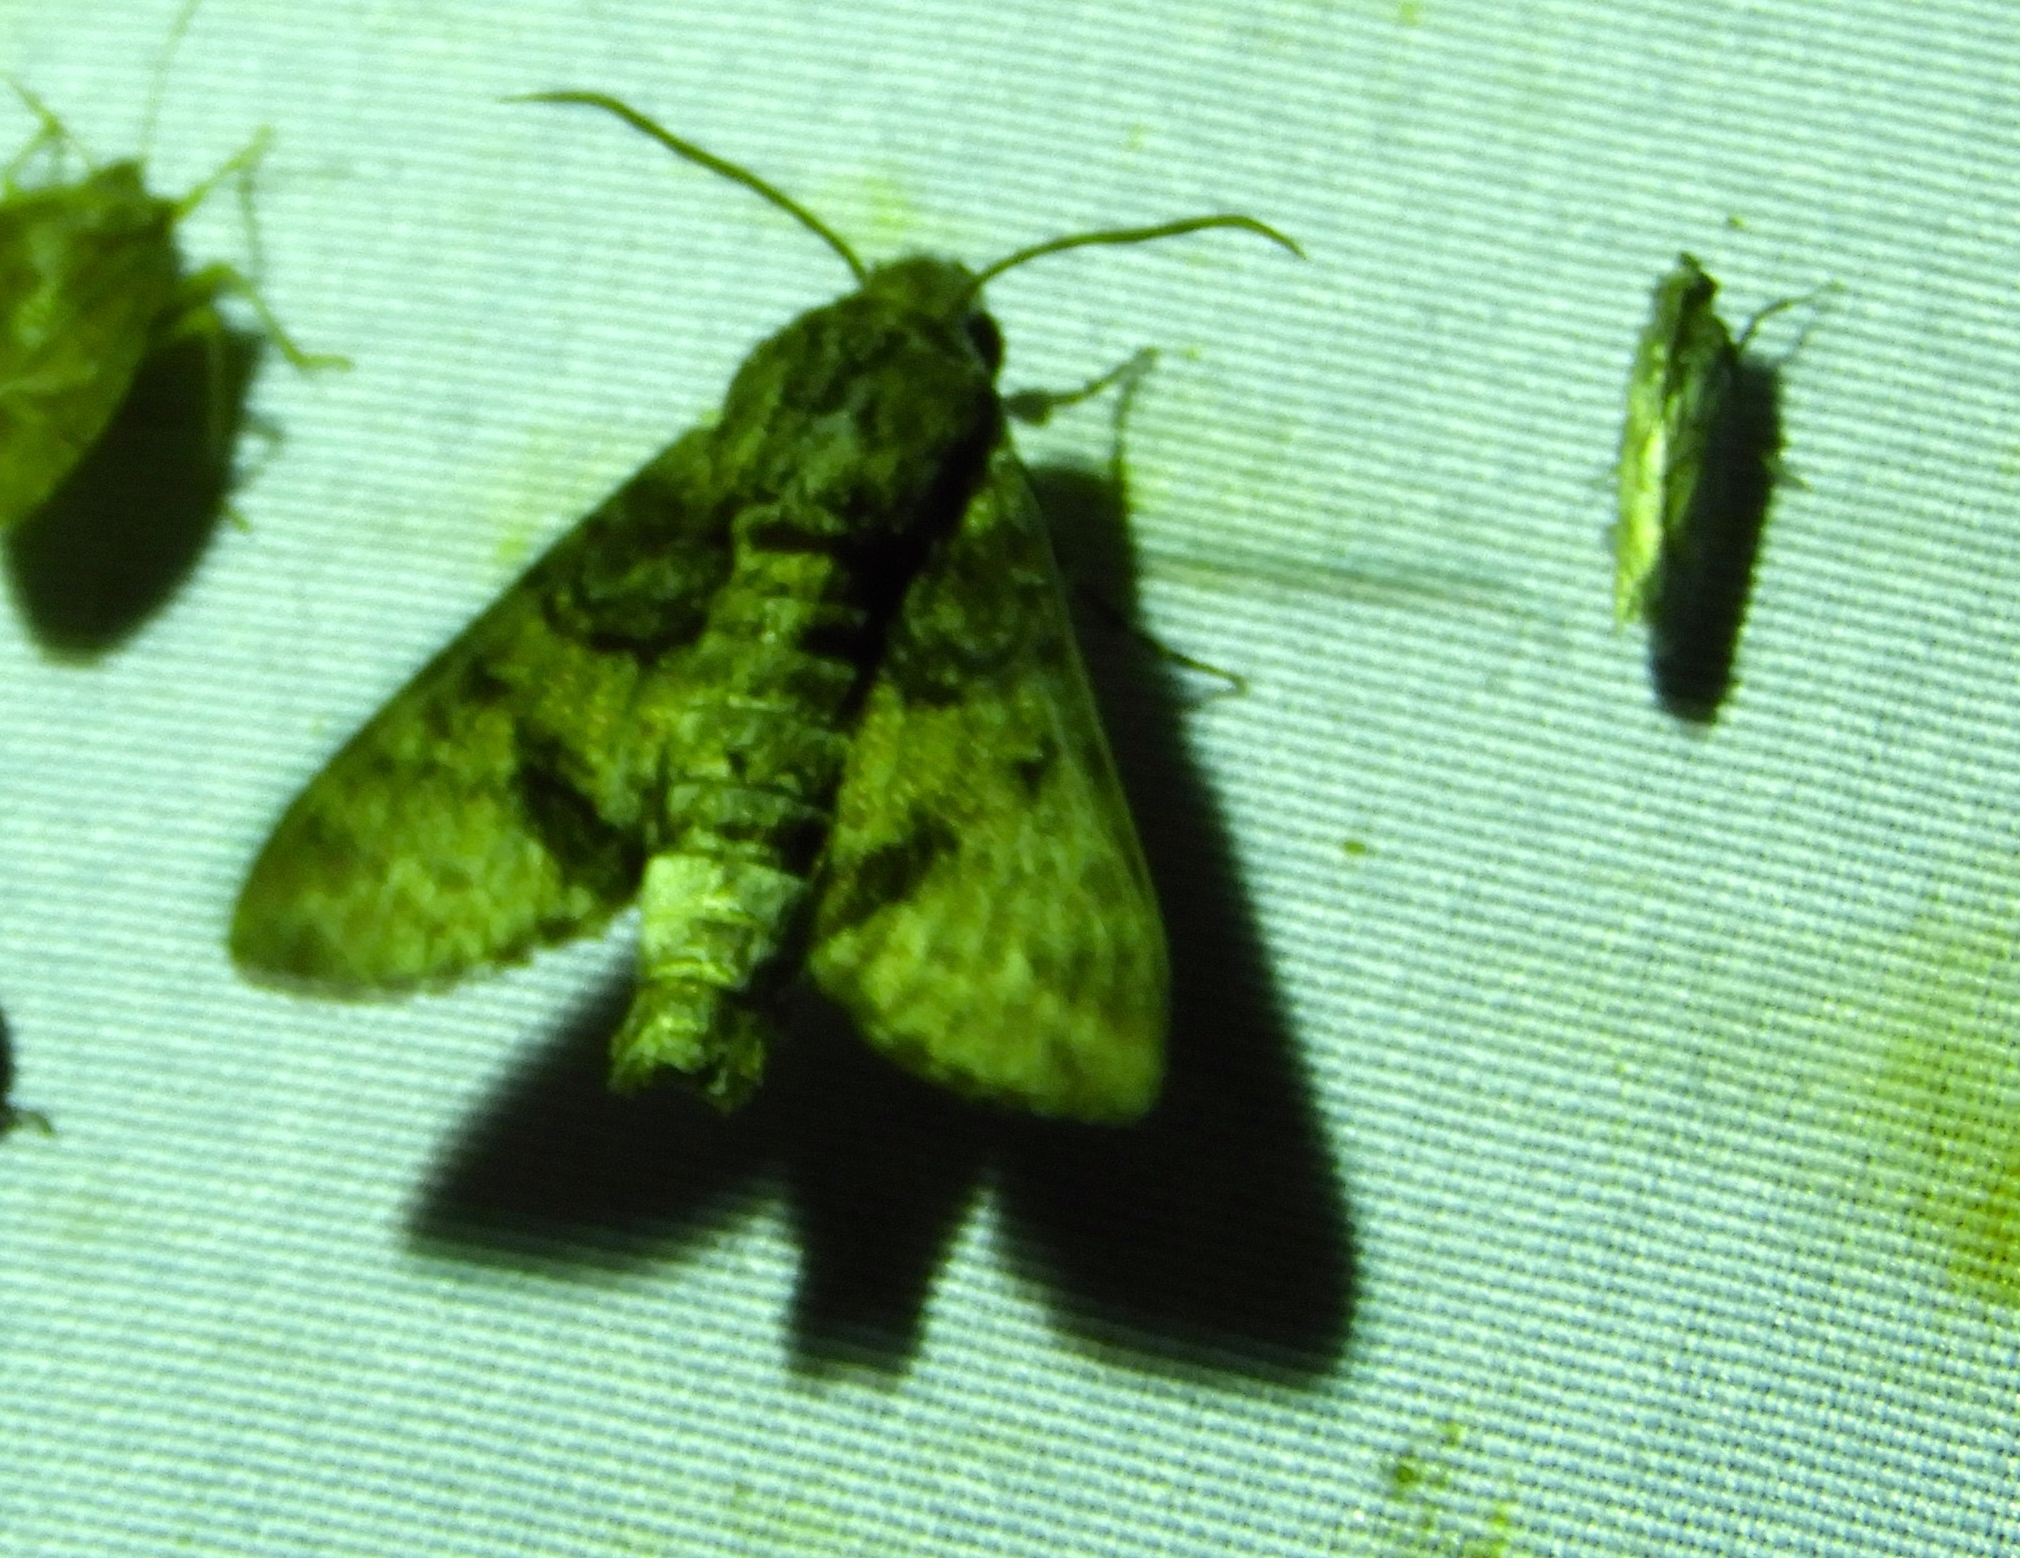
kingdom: Animalia
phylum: Arthropoda
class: Insecta
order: Lepidoptera
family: Sphingidae
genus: Cautethia
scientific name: Cautethia spuria
